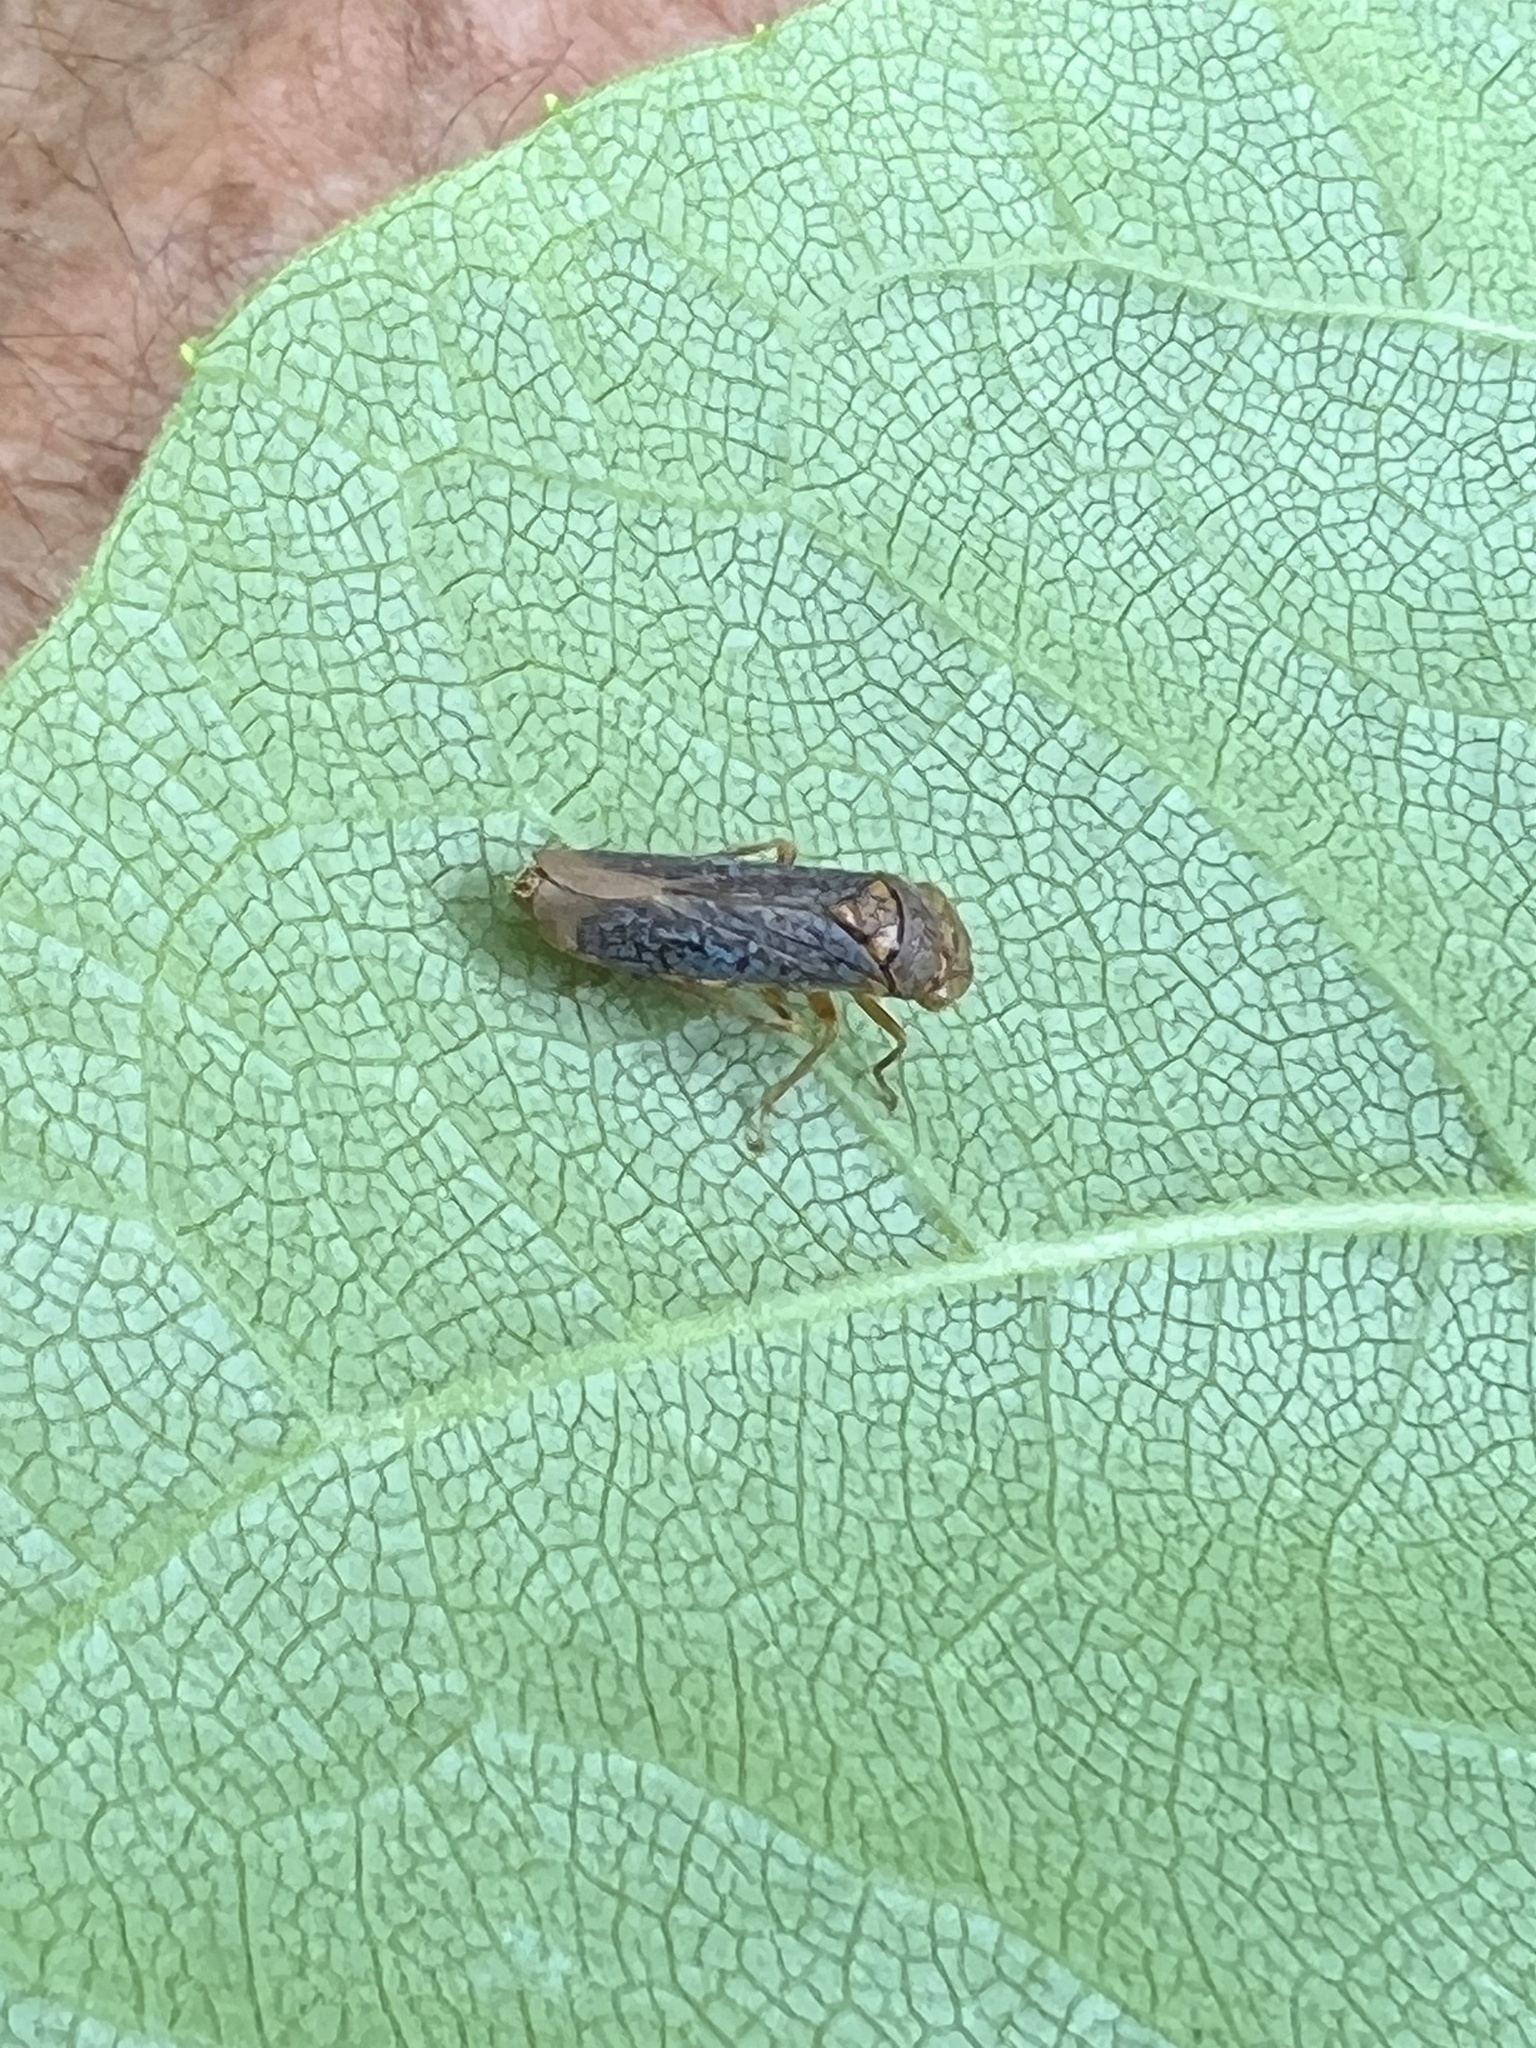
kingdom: Animalia
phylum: Arthropoda
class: Insecta
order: Hemiptera
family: Cicadellidae
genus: Oncometopia
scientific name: Oncometopia orbona
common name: Broad-headed sharpshooter
